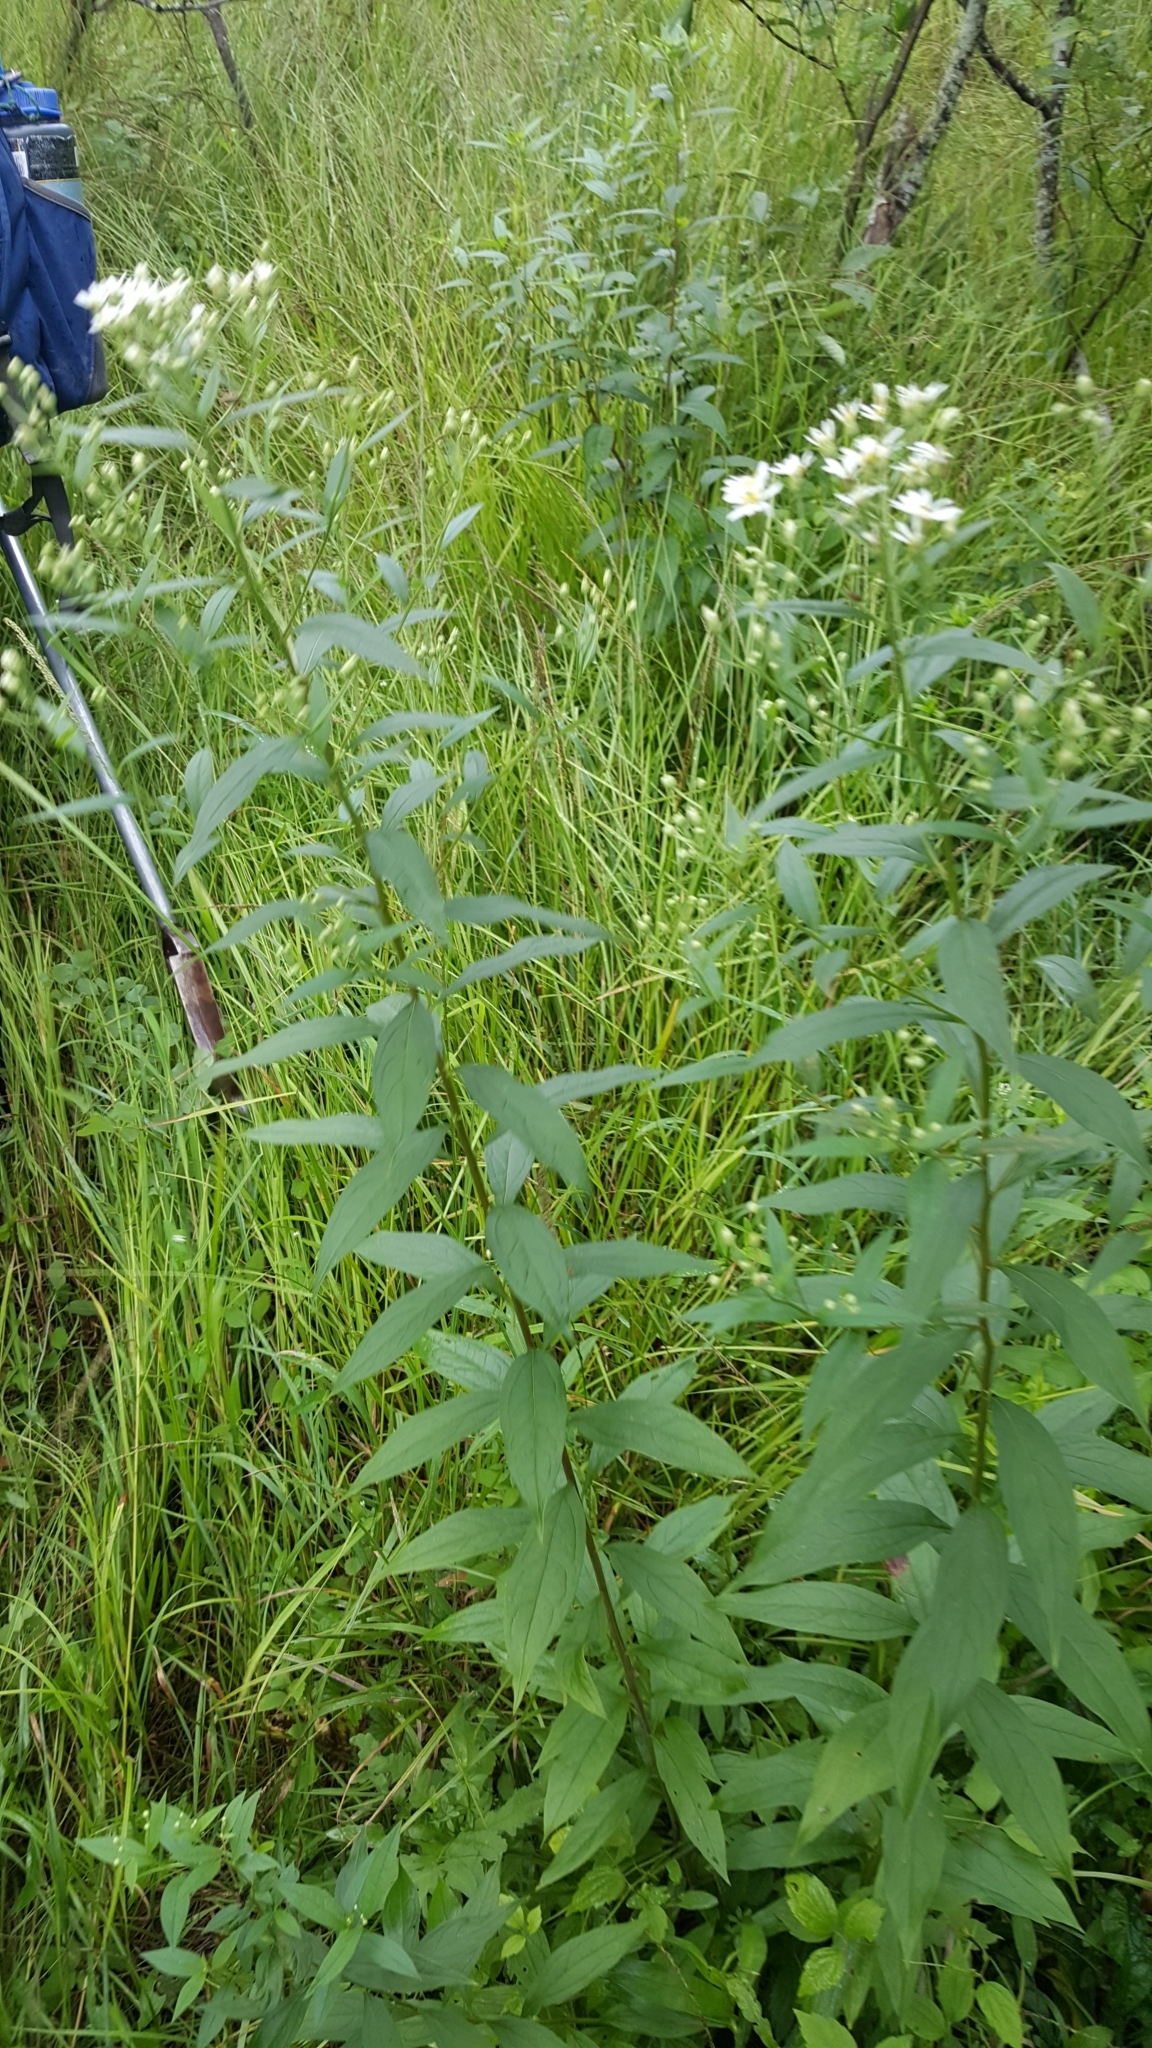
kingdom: Plantae
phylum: Tracheophyta
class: Magnoliopsida
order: Asterales
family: Asteraceae
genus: Doellingeria
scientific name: Doellingeria umbellata
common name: Flat-top white aster
